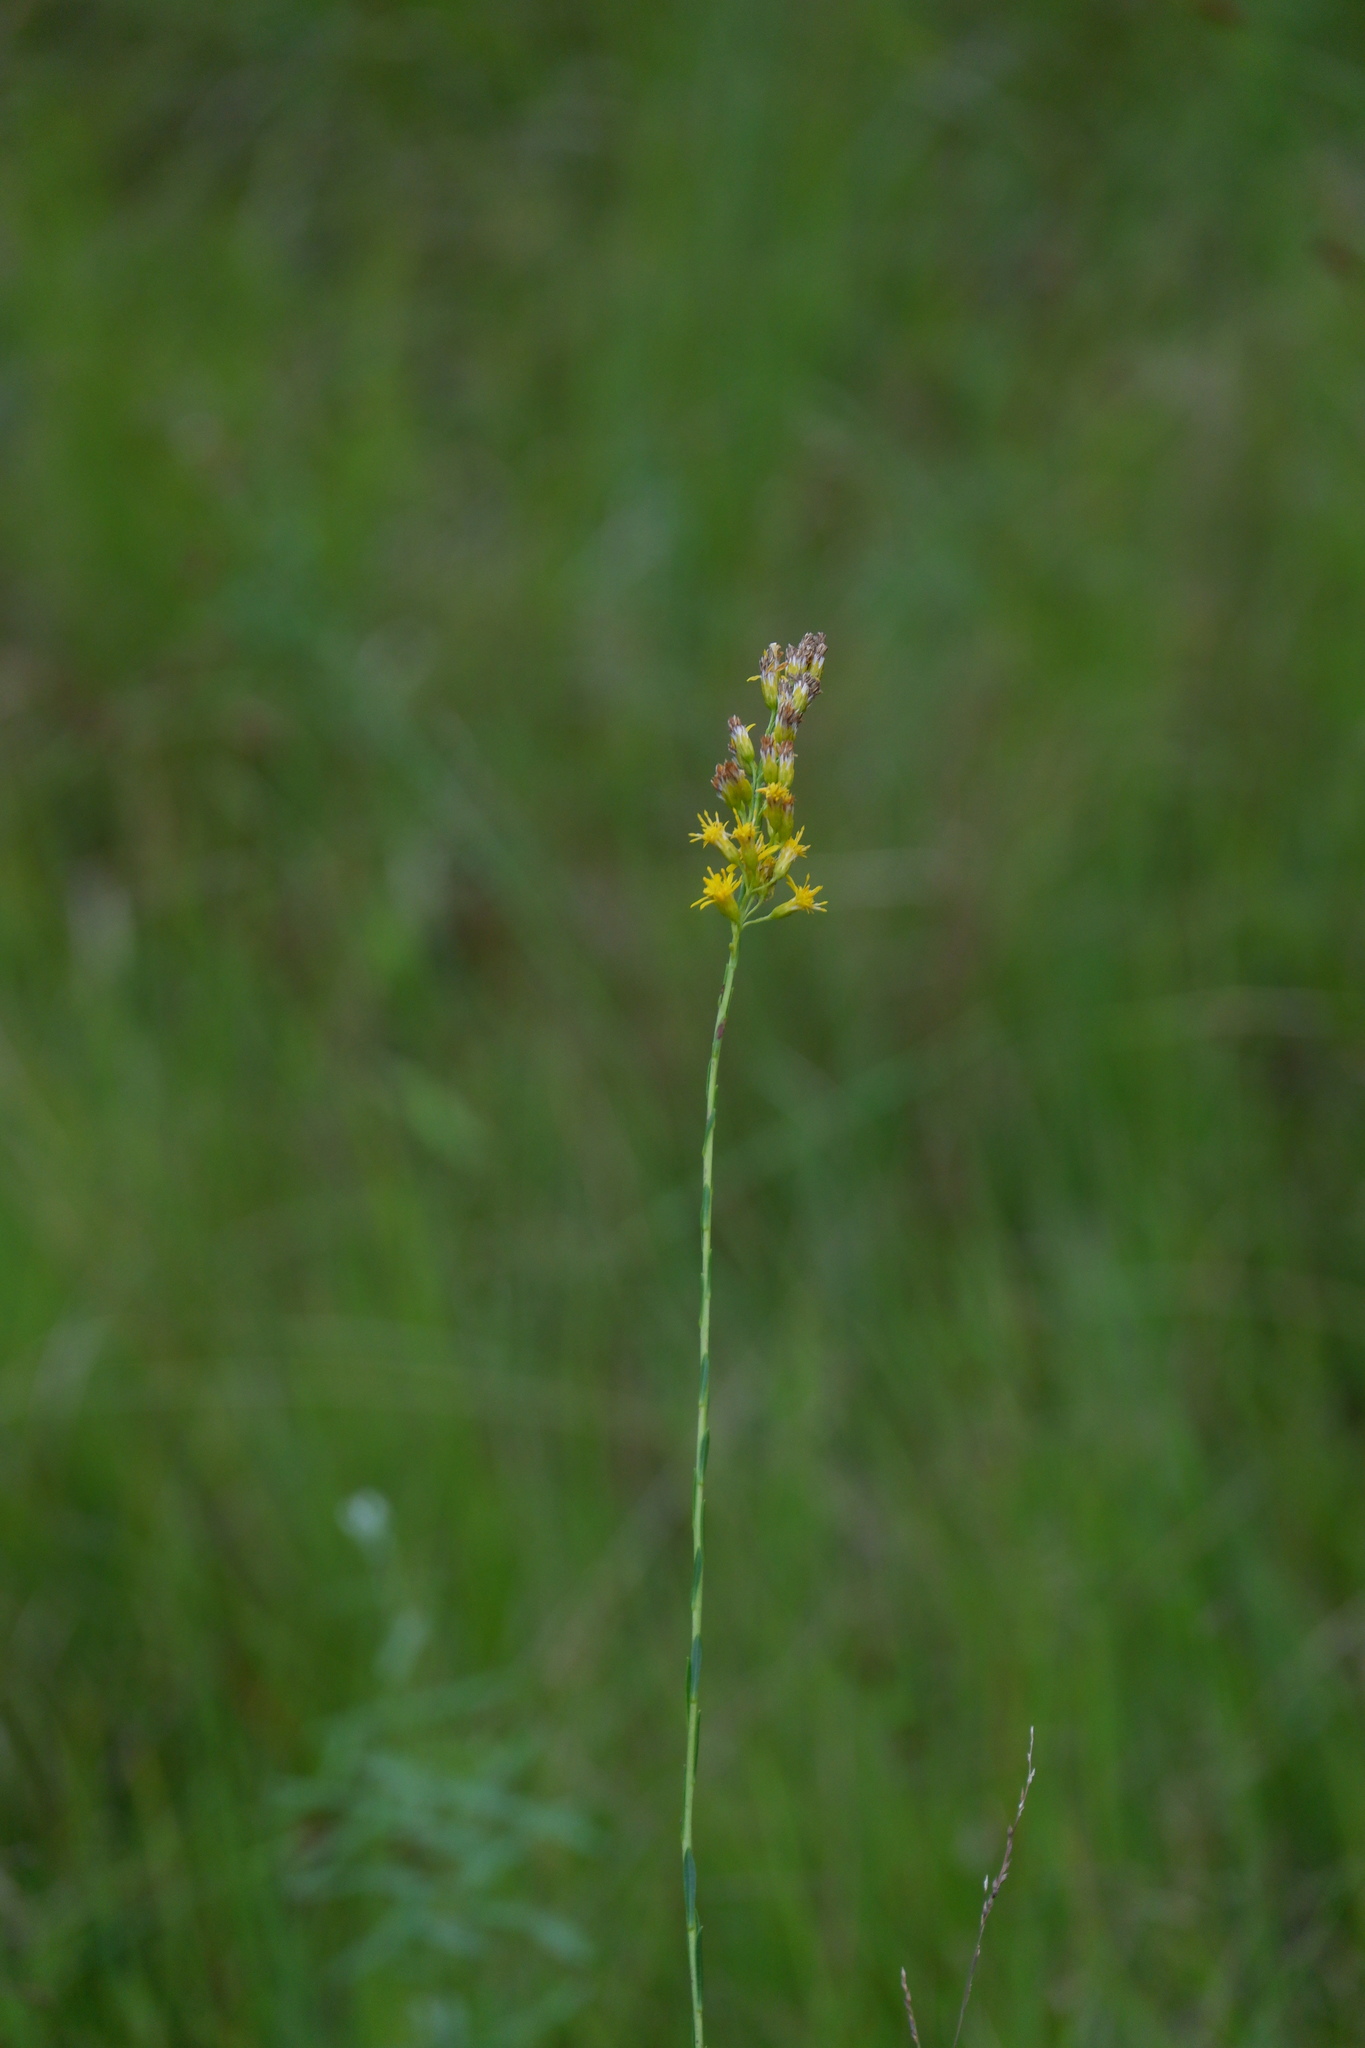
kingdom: Plantae
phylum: Tracheophyta
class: Magnoliopsida
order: Asterales
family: Asteraceae
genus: Solidago
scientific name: Solidago stricta
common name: Pine barren bog goldenrod
